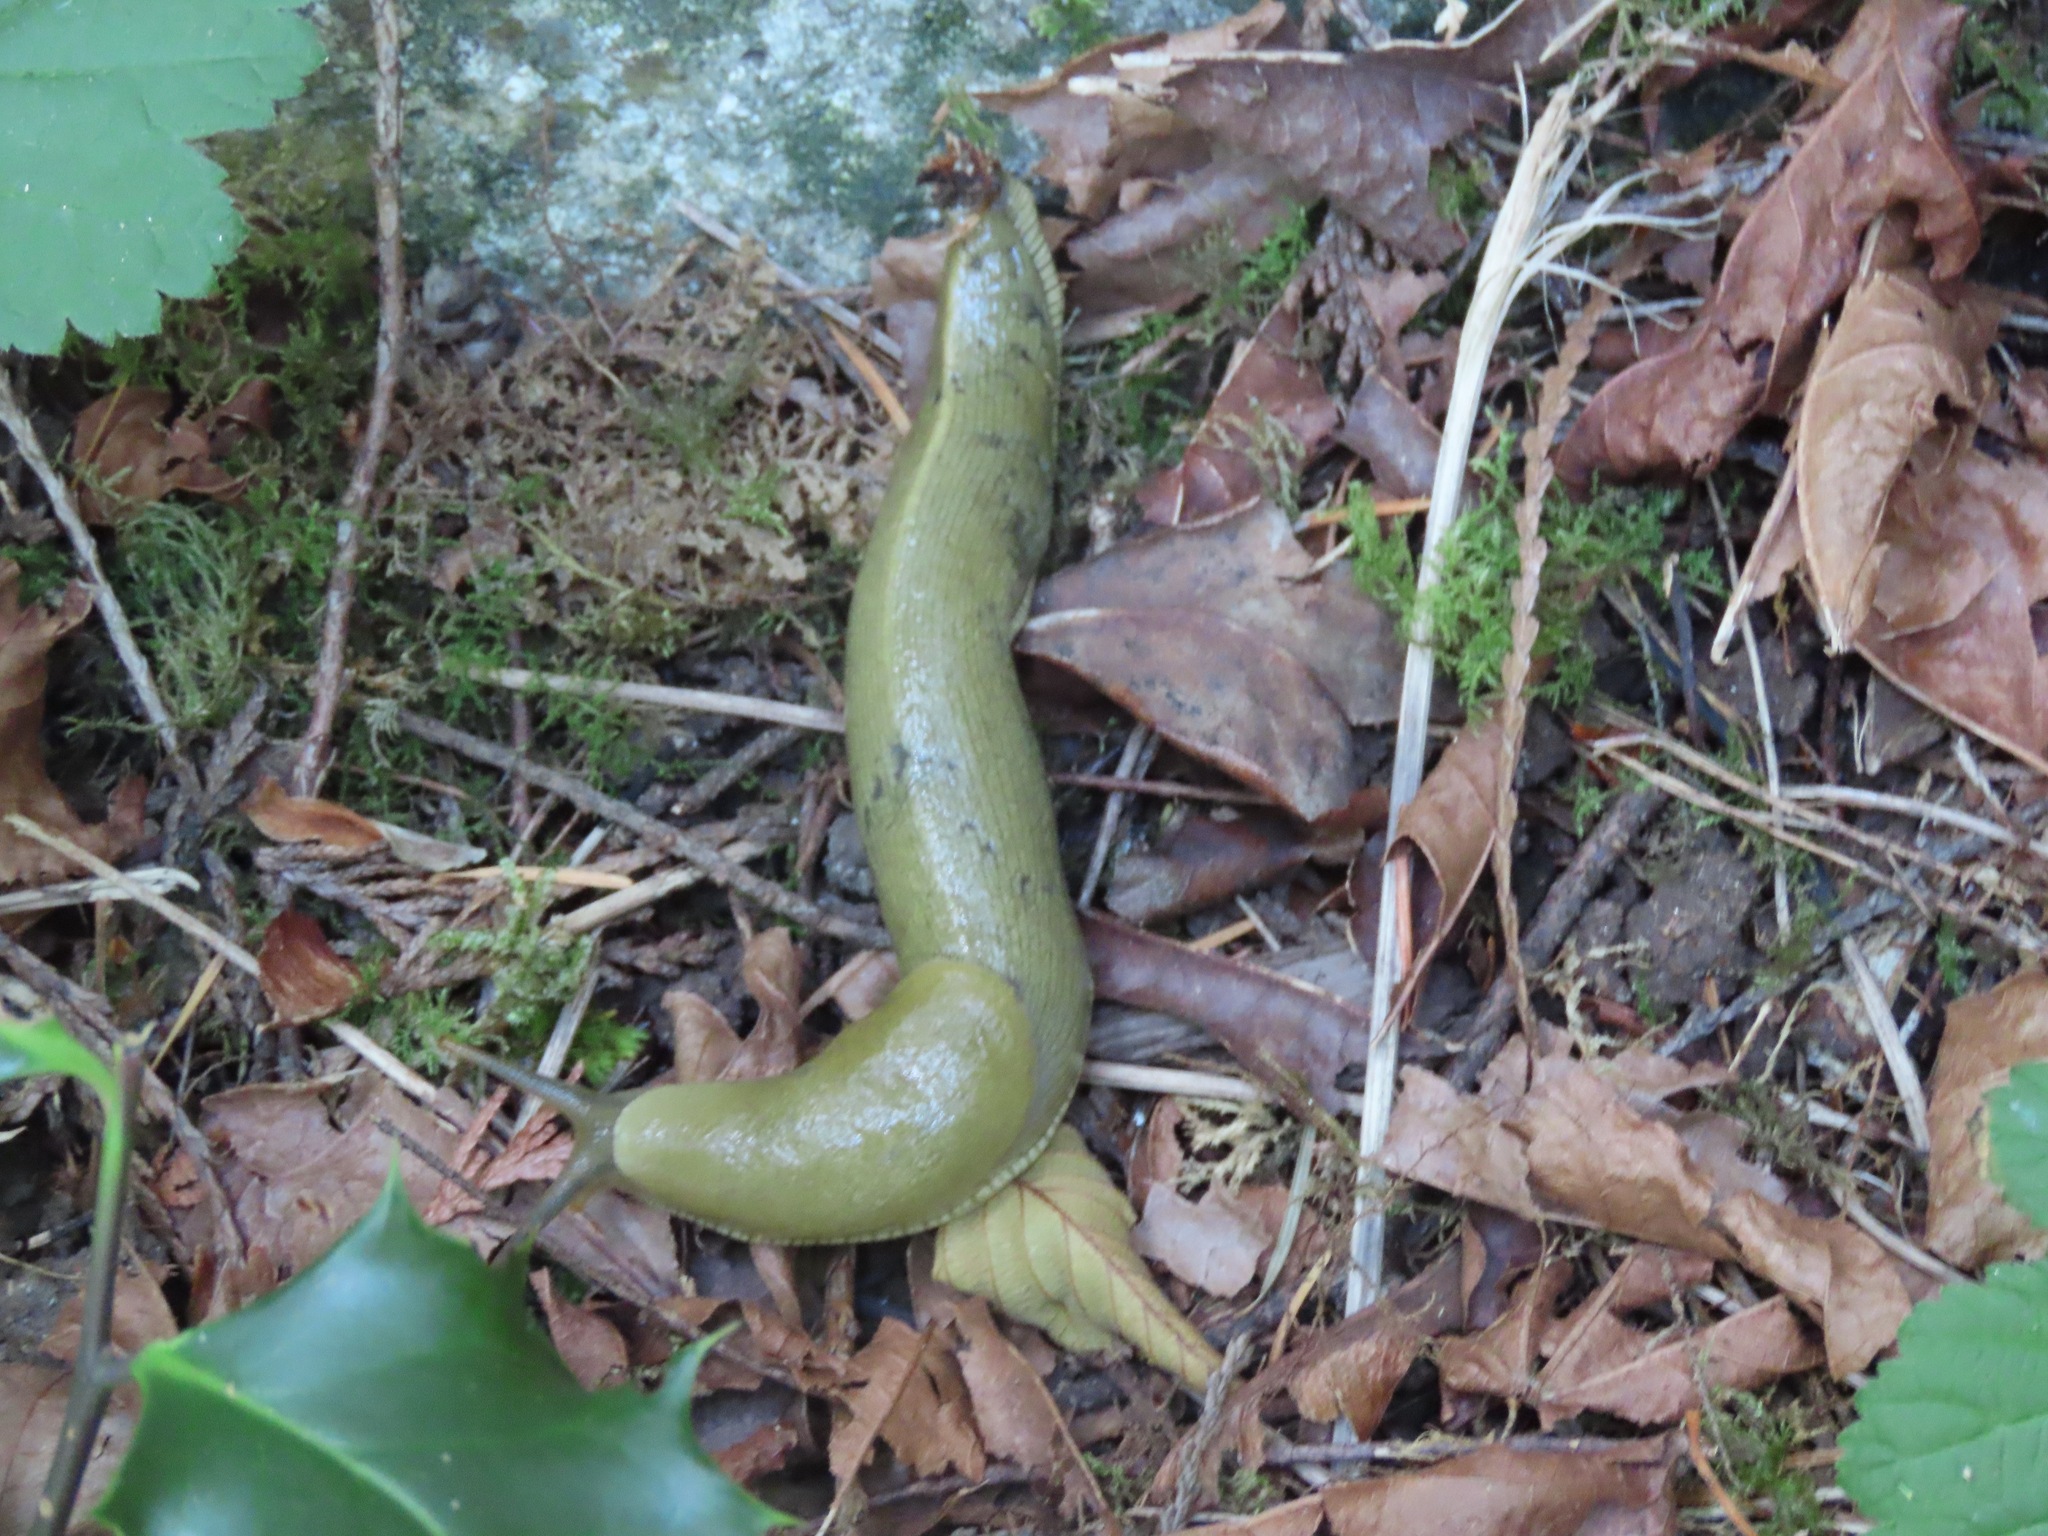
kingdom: Animalia
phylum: Mollusca
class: Gastropoda
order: Stylommatophora
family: Ariolimacidae
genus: Ariolimax
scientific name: Ariolimax columbianus
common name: Pacific banana slug
